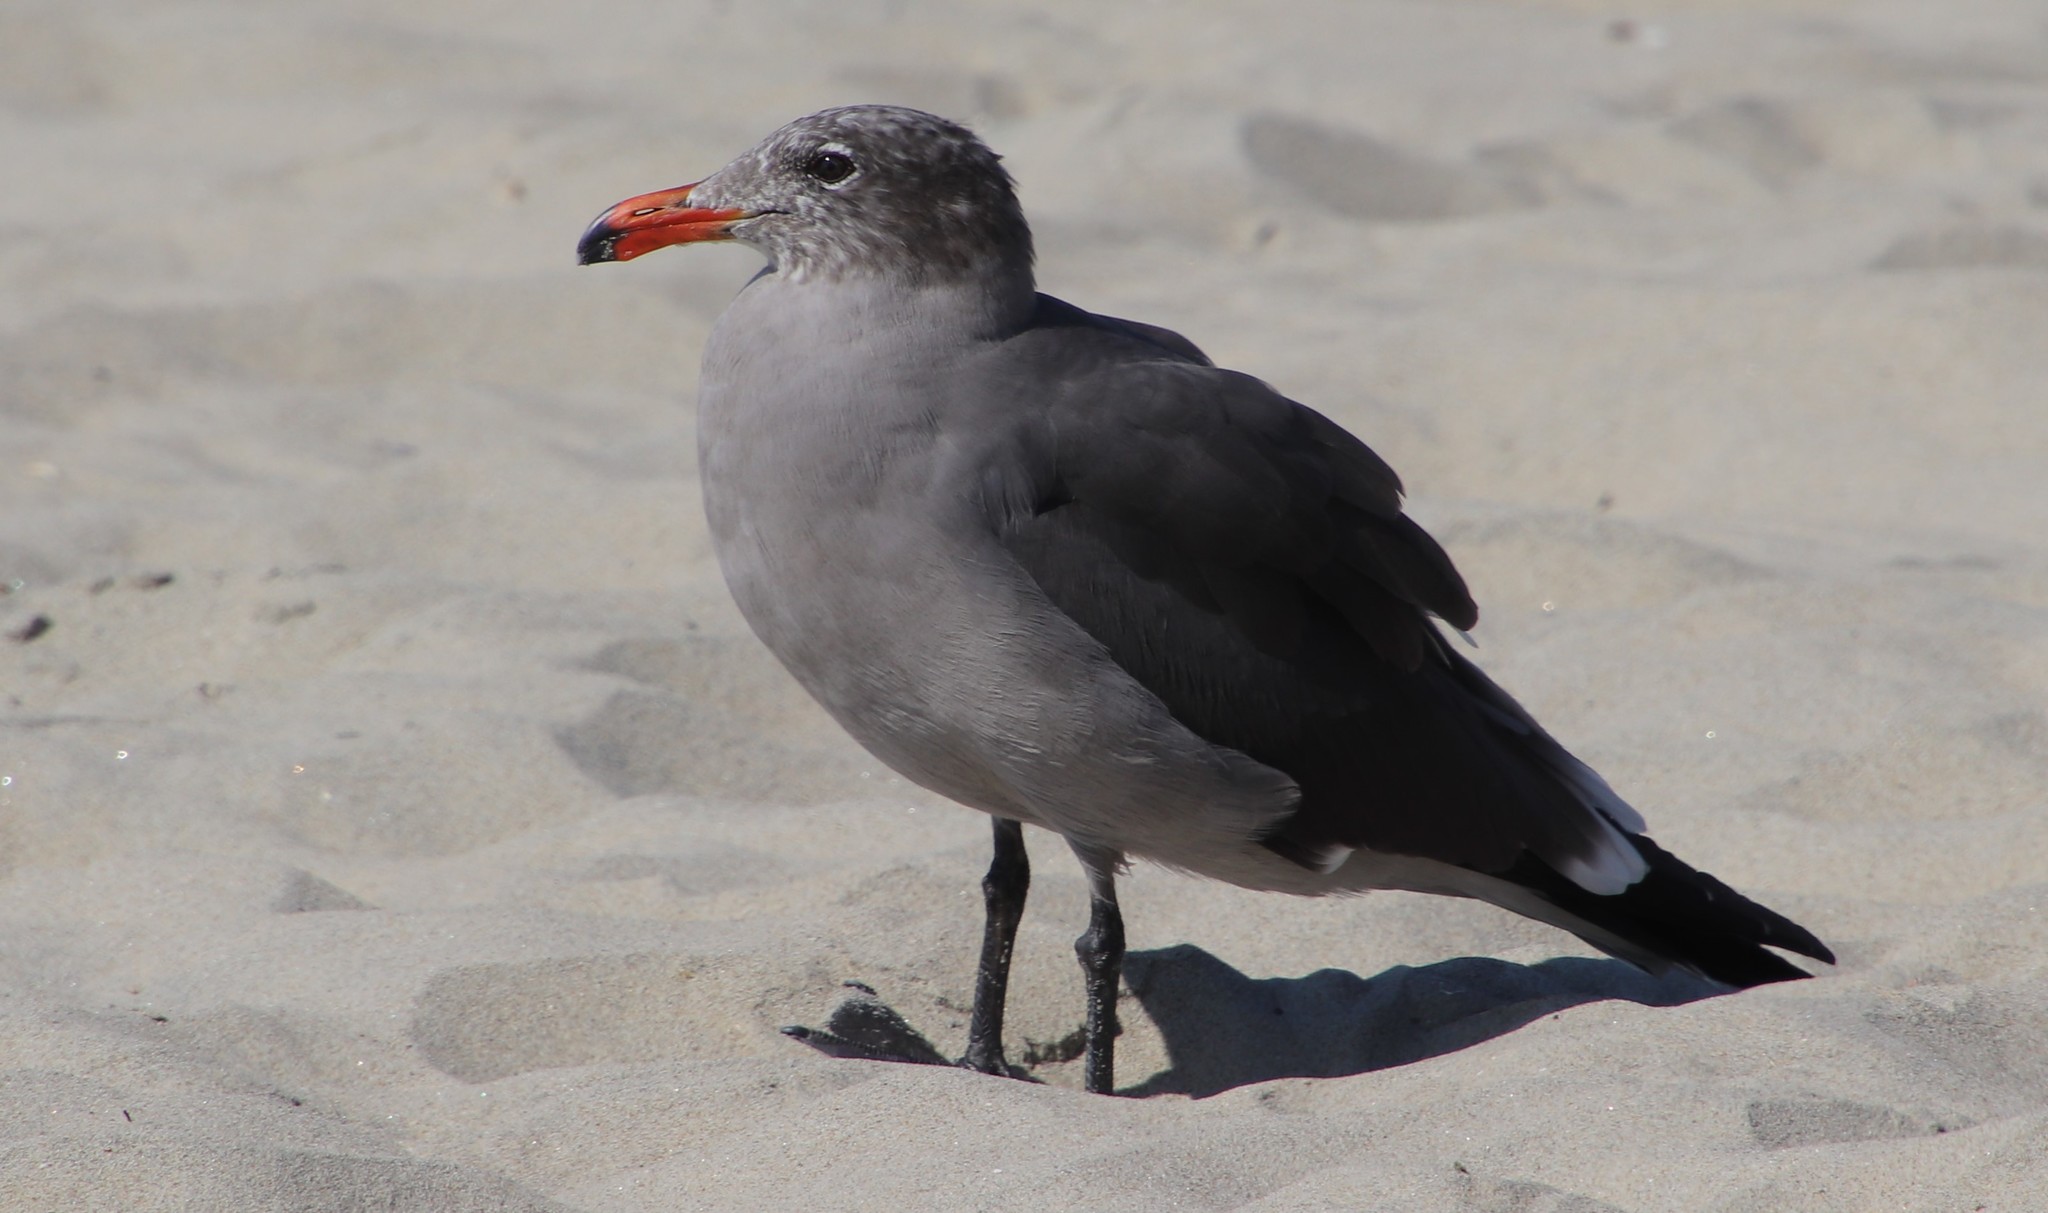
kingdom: Animalia
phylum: Chordata
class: Aves
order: Charadriiformes
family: Laridae
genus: Larus
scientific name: Larus heermanni
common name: Heermann's gull
